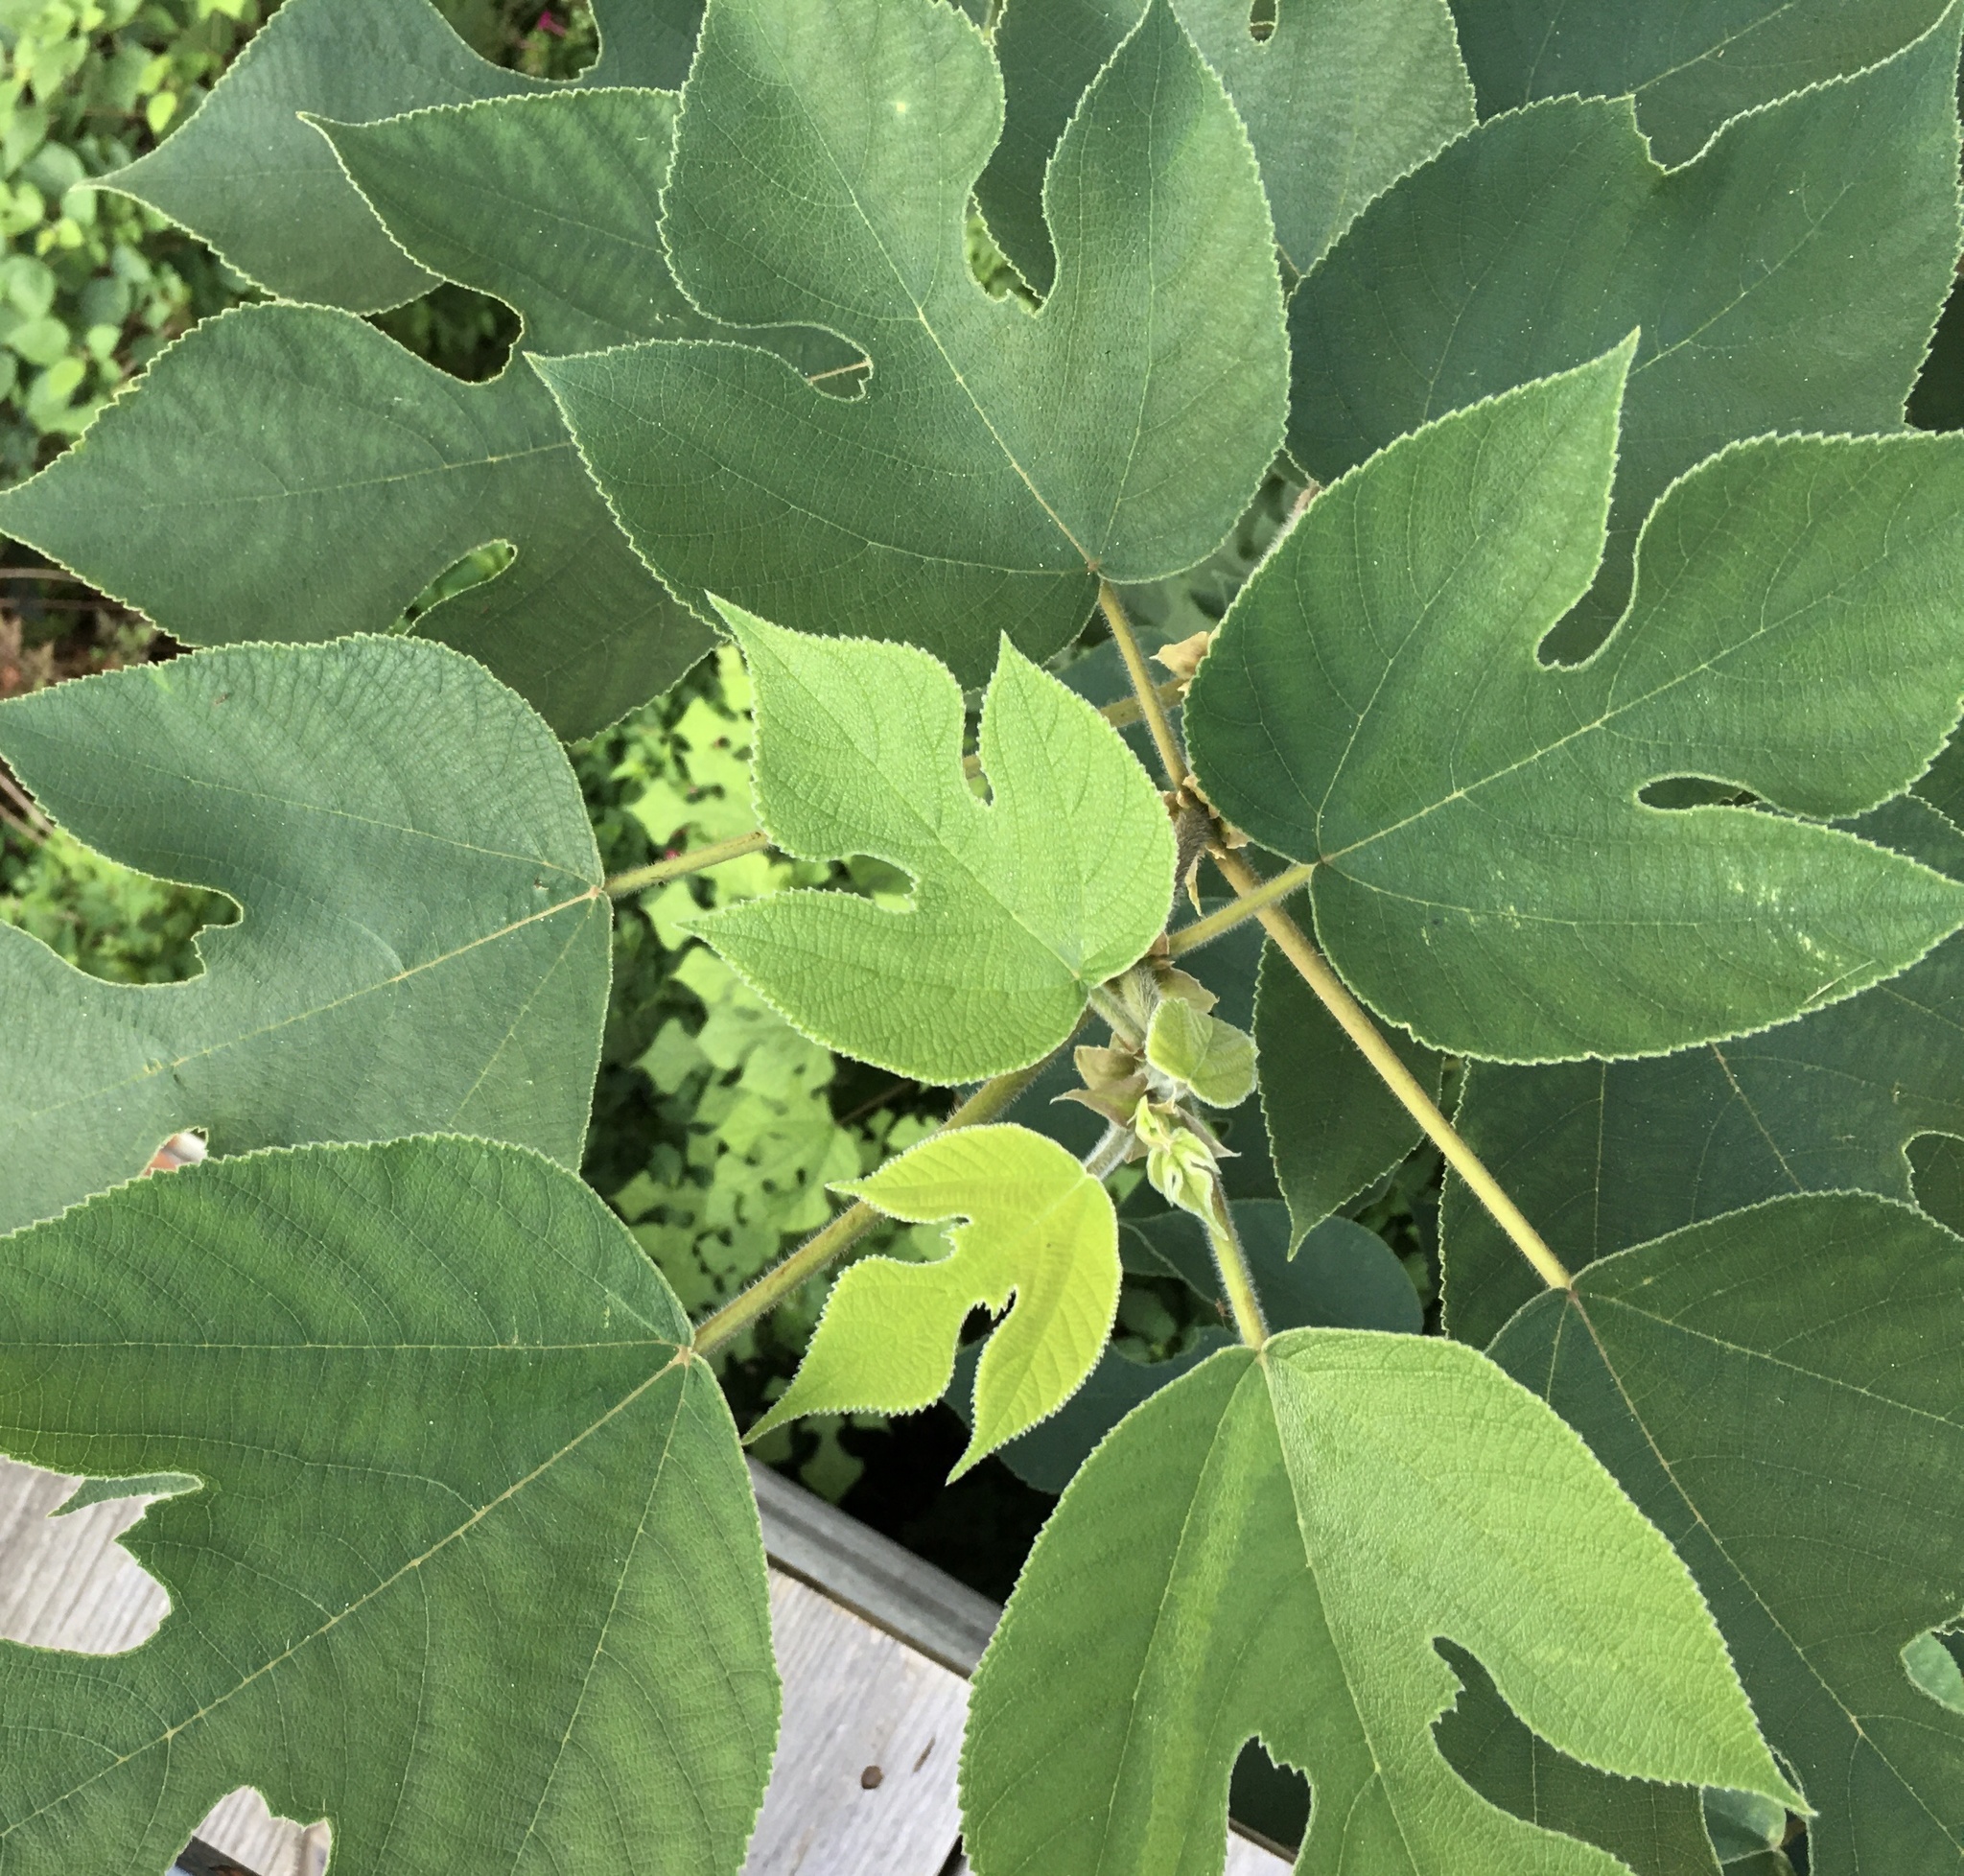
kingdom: Plantae
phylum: Tracheophyta
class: Magnoliopsida
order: Rosales
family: Moraceae
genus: Broussonetia
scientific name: Broussonetia papyrifera
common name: Paper mulberry
